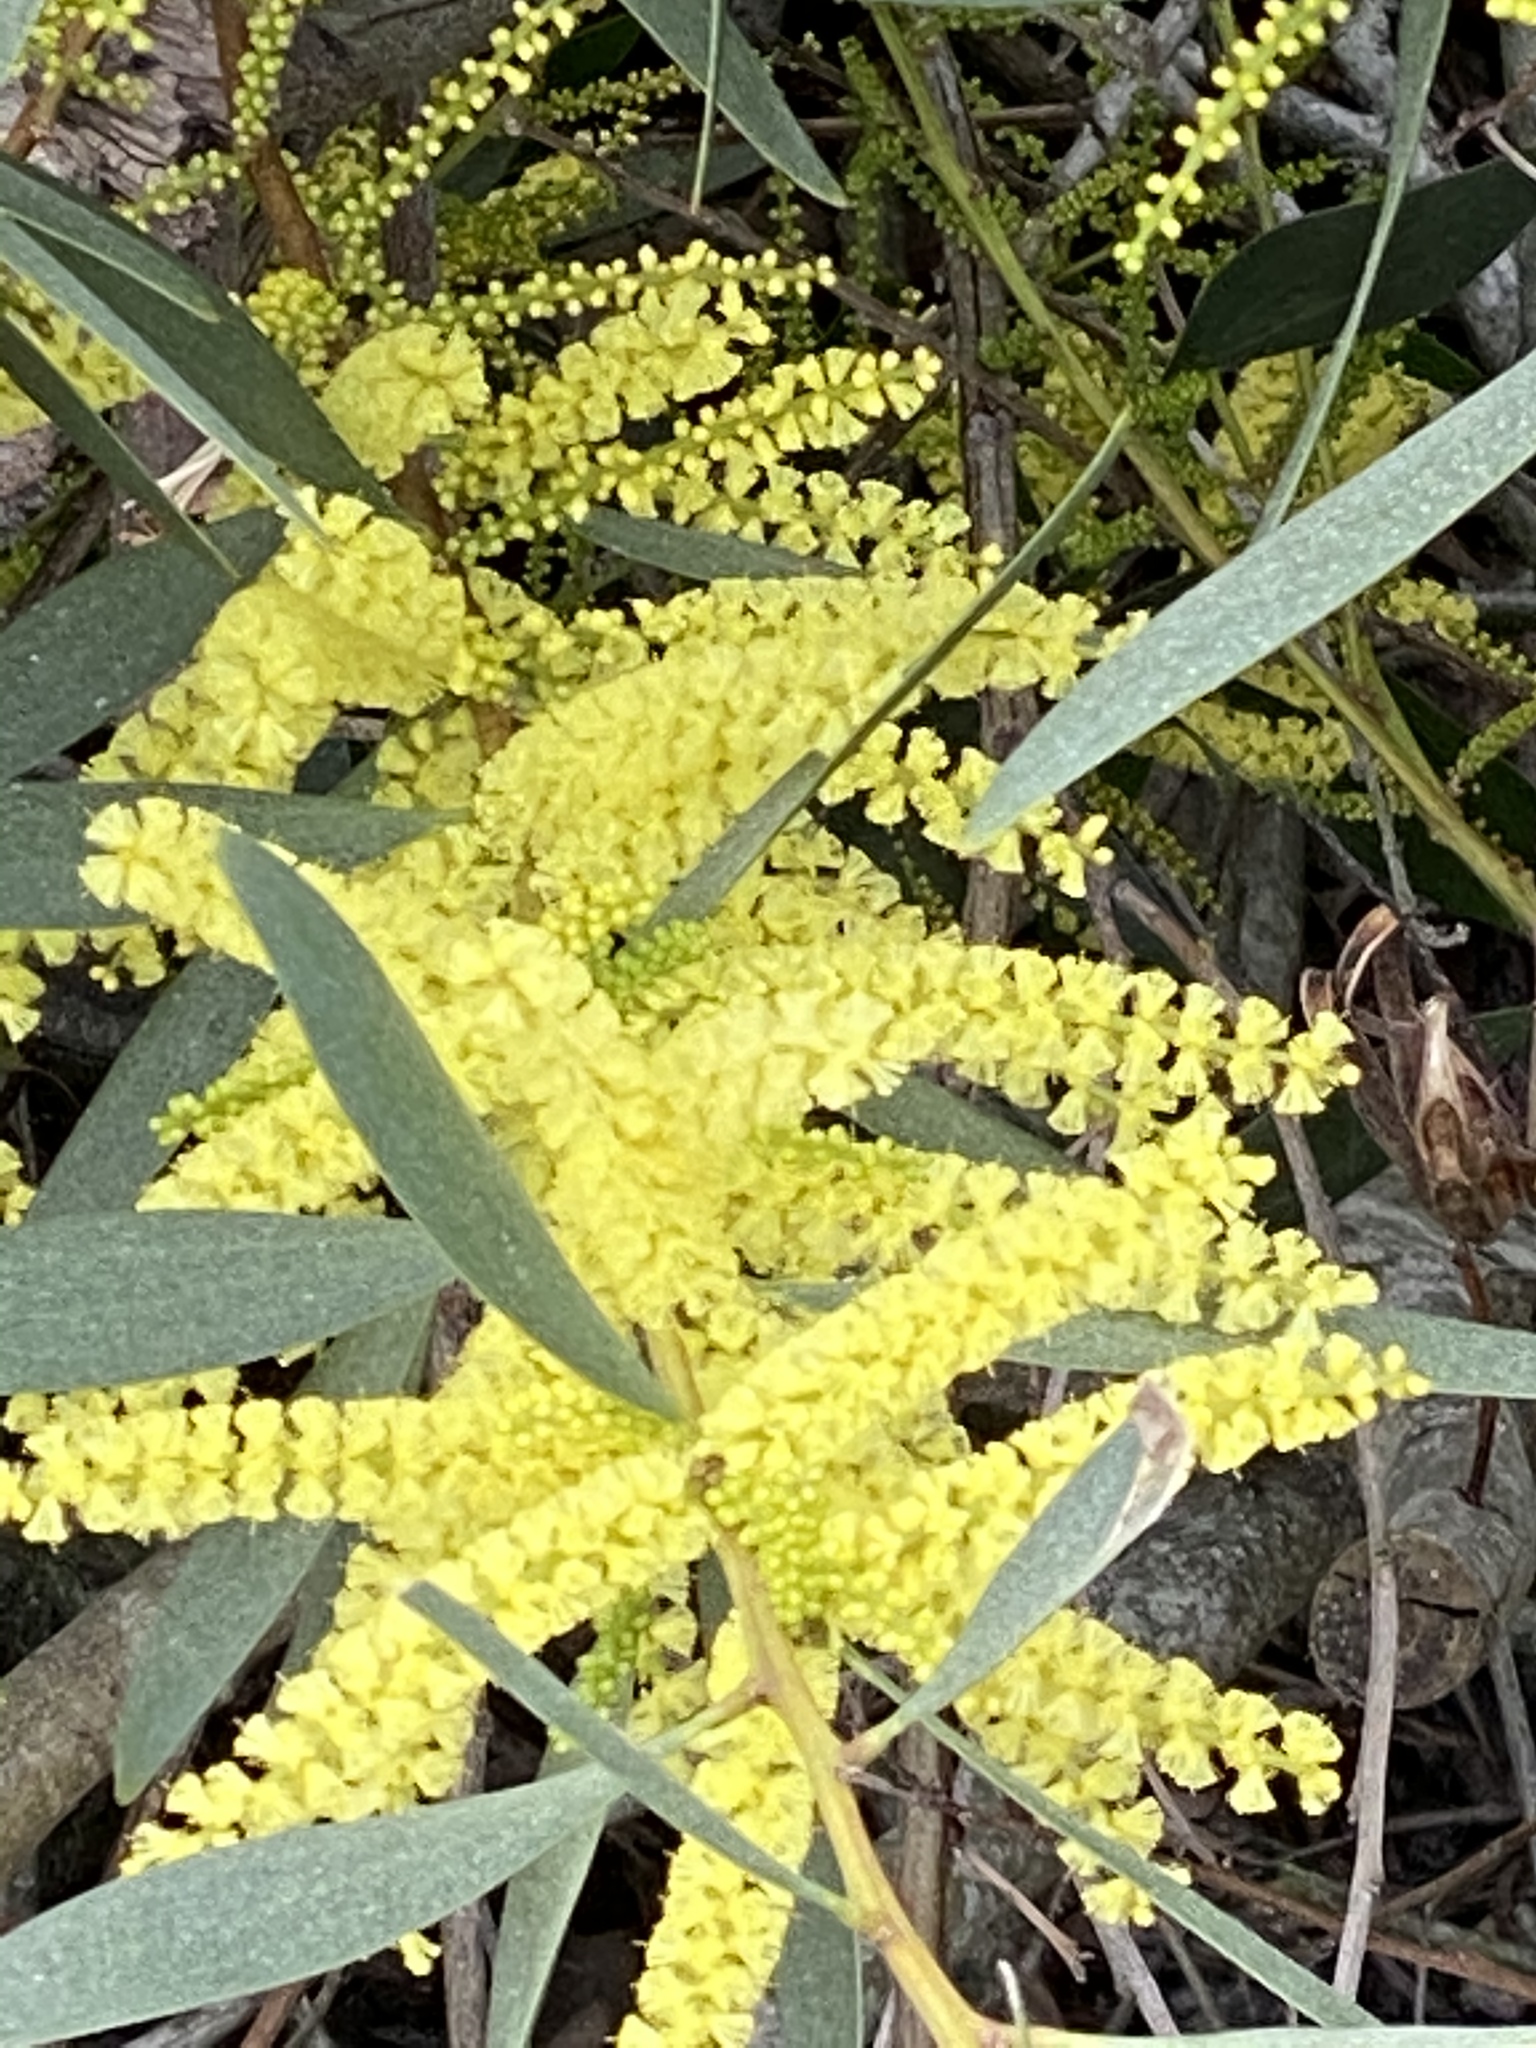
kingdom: Plantae
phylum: Tracheophyta
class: Magnoliopsida
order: Fabales
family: Fabaceae
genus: Acacia
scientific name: Acacia longifolia
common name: Sydney golden wattle
